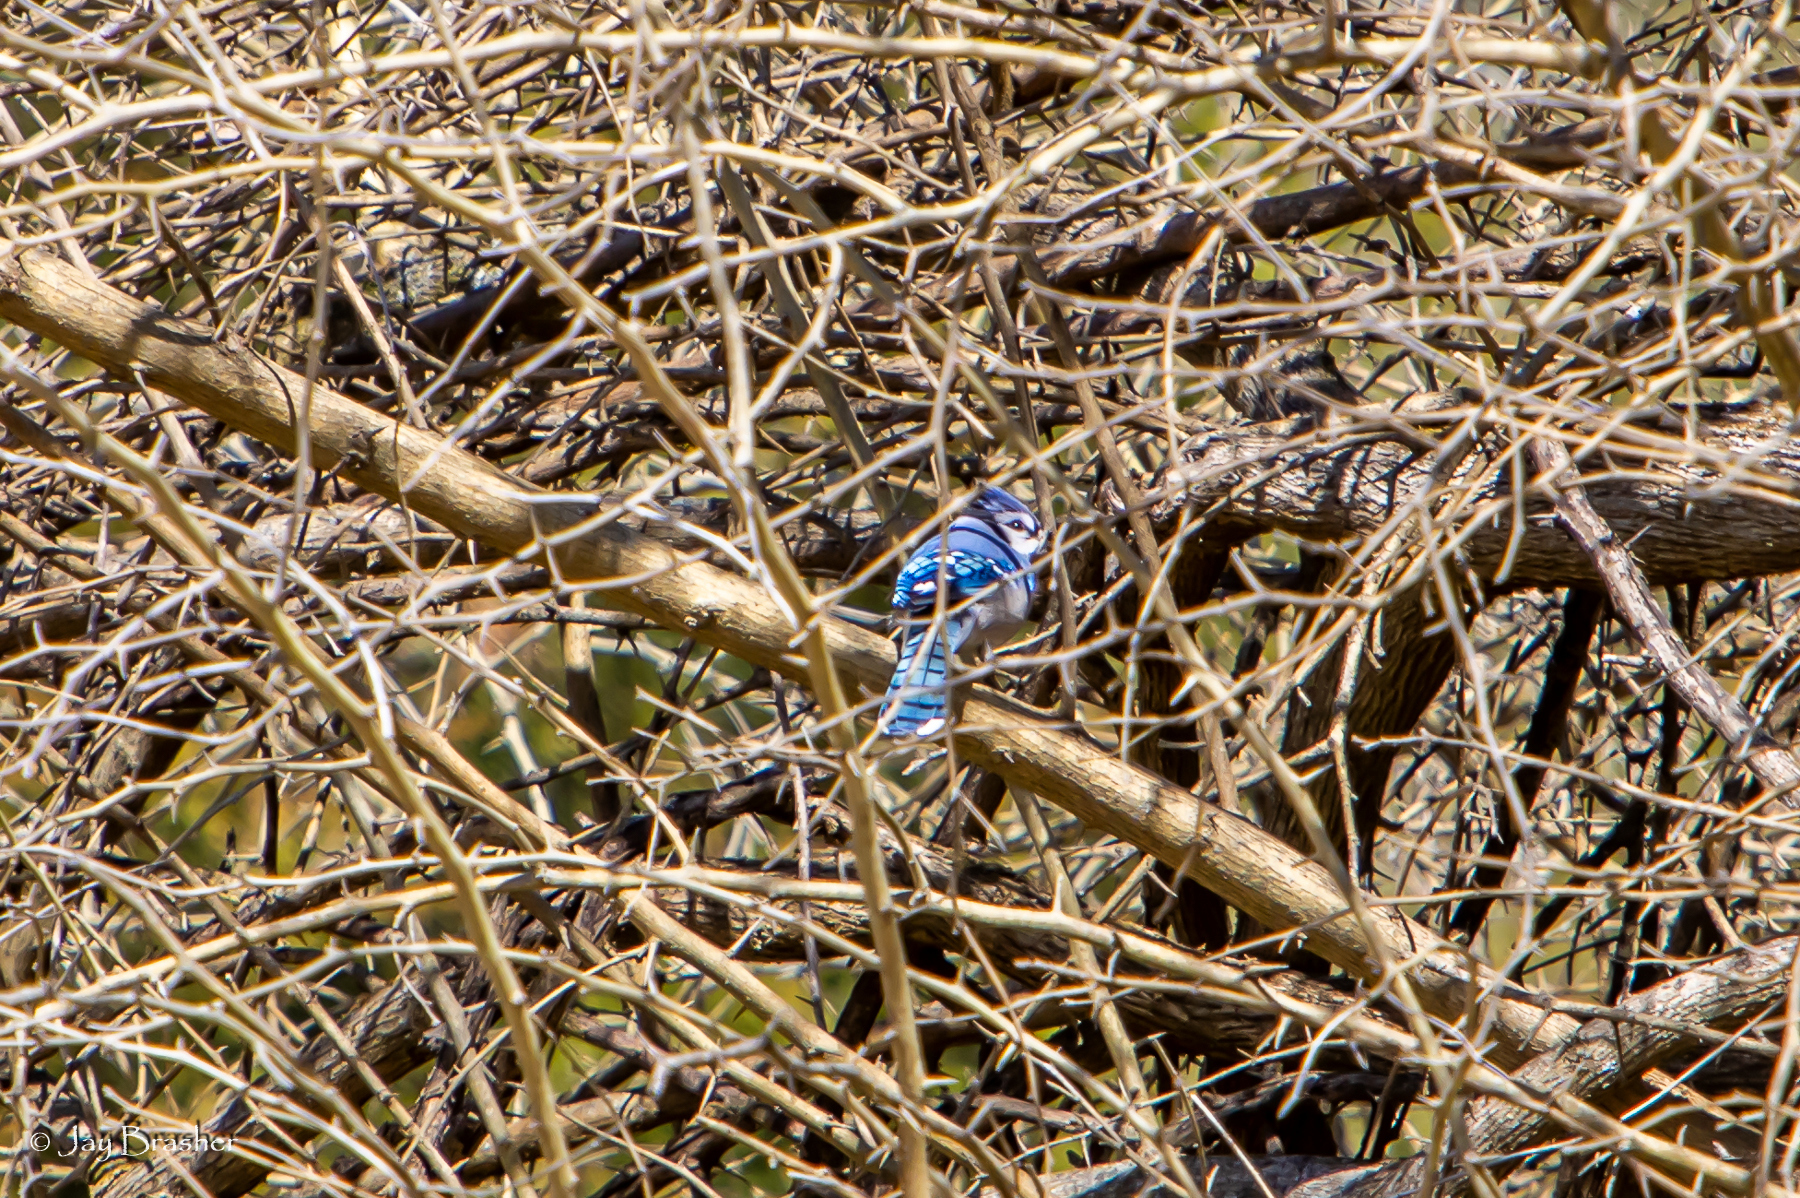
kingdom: Animalia
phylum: Chordata
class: Aves
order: Passeriformes
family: Corvidae
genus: Cyanocitta
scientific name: Cyanocitta cristata
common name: Blue jay
